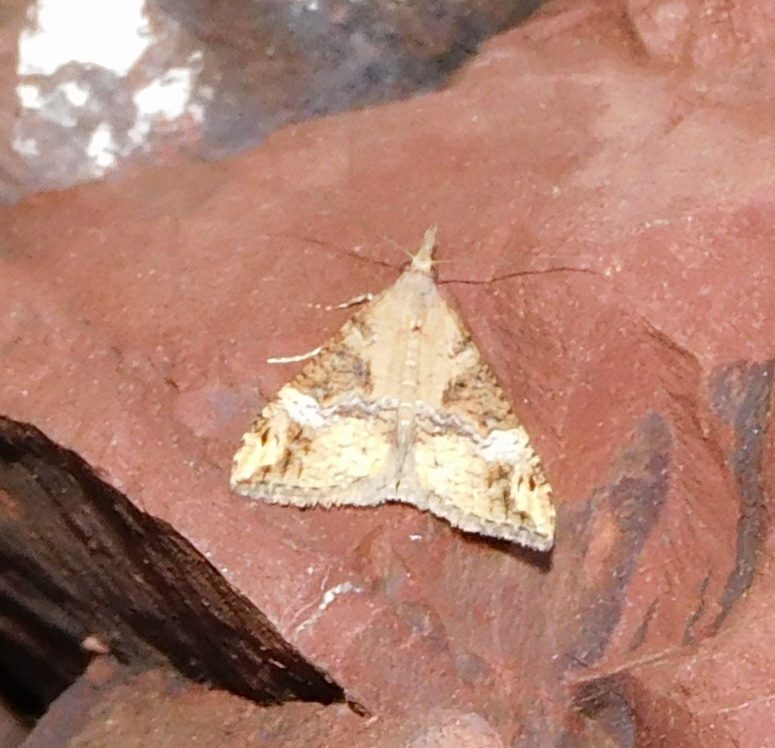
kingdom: Animalia
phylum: Arthropoda
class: Insecta
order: Lepidoptera
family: Erebidae
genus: Hypena
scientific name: Hypena obsitalis
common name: Bloxworth snout
